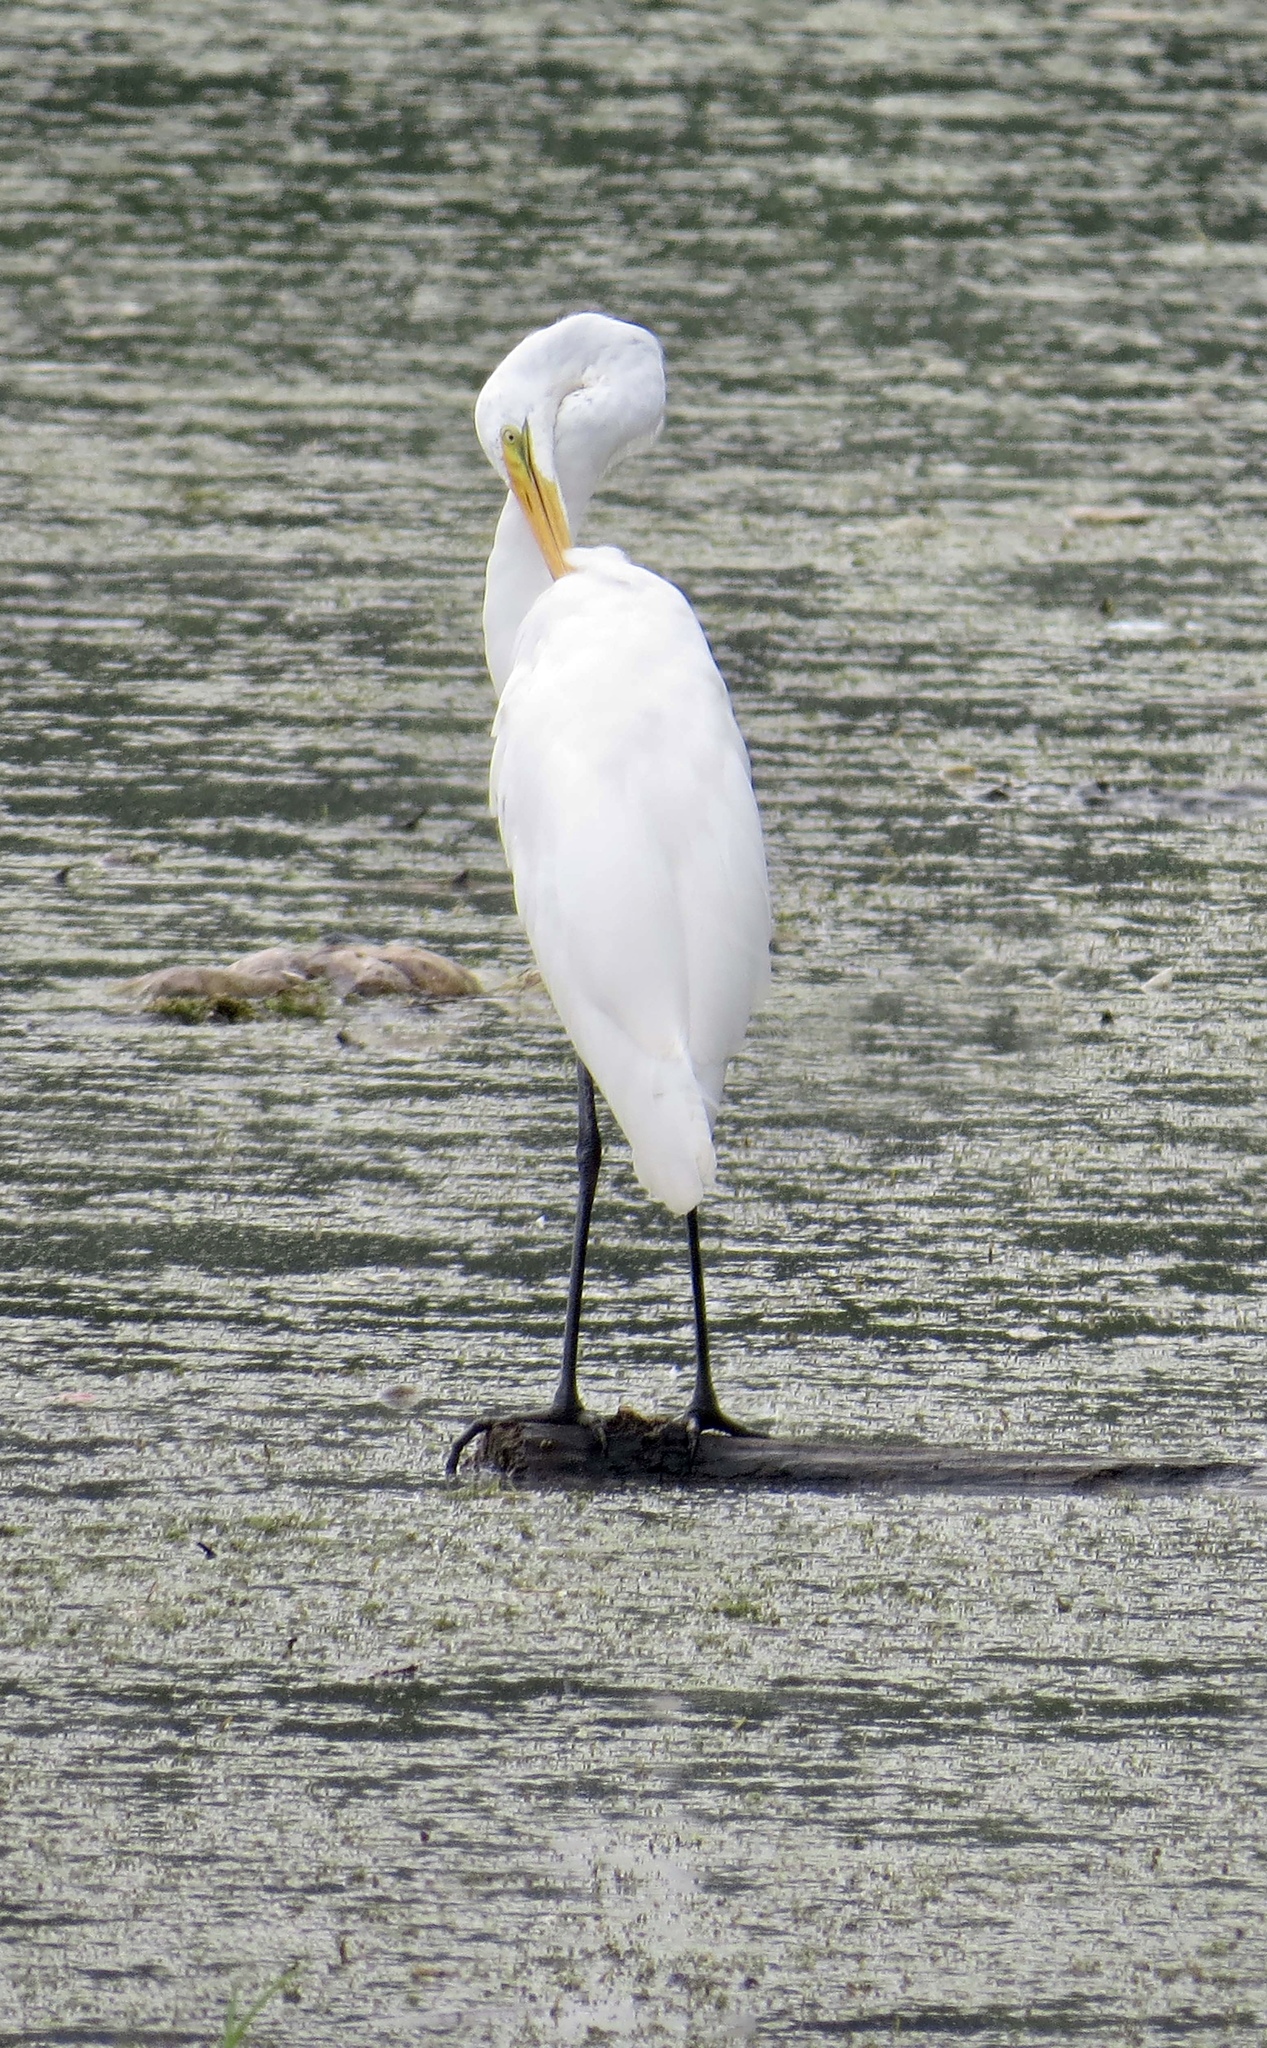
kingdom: Animalia
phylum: Chordata
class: Aves
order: Pelecaniformes
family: Ardeidae
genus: Ardea
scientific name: Ardea alba
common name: Great egret
